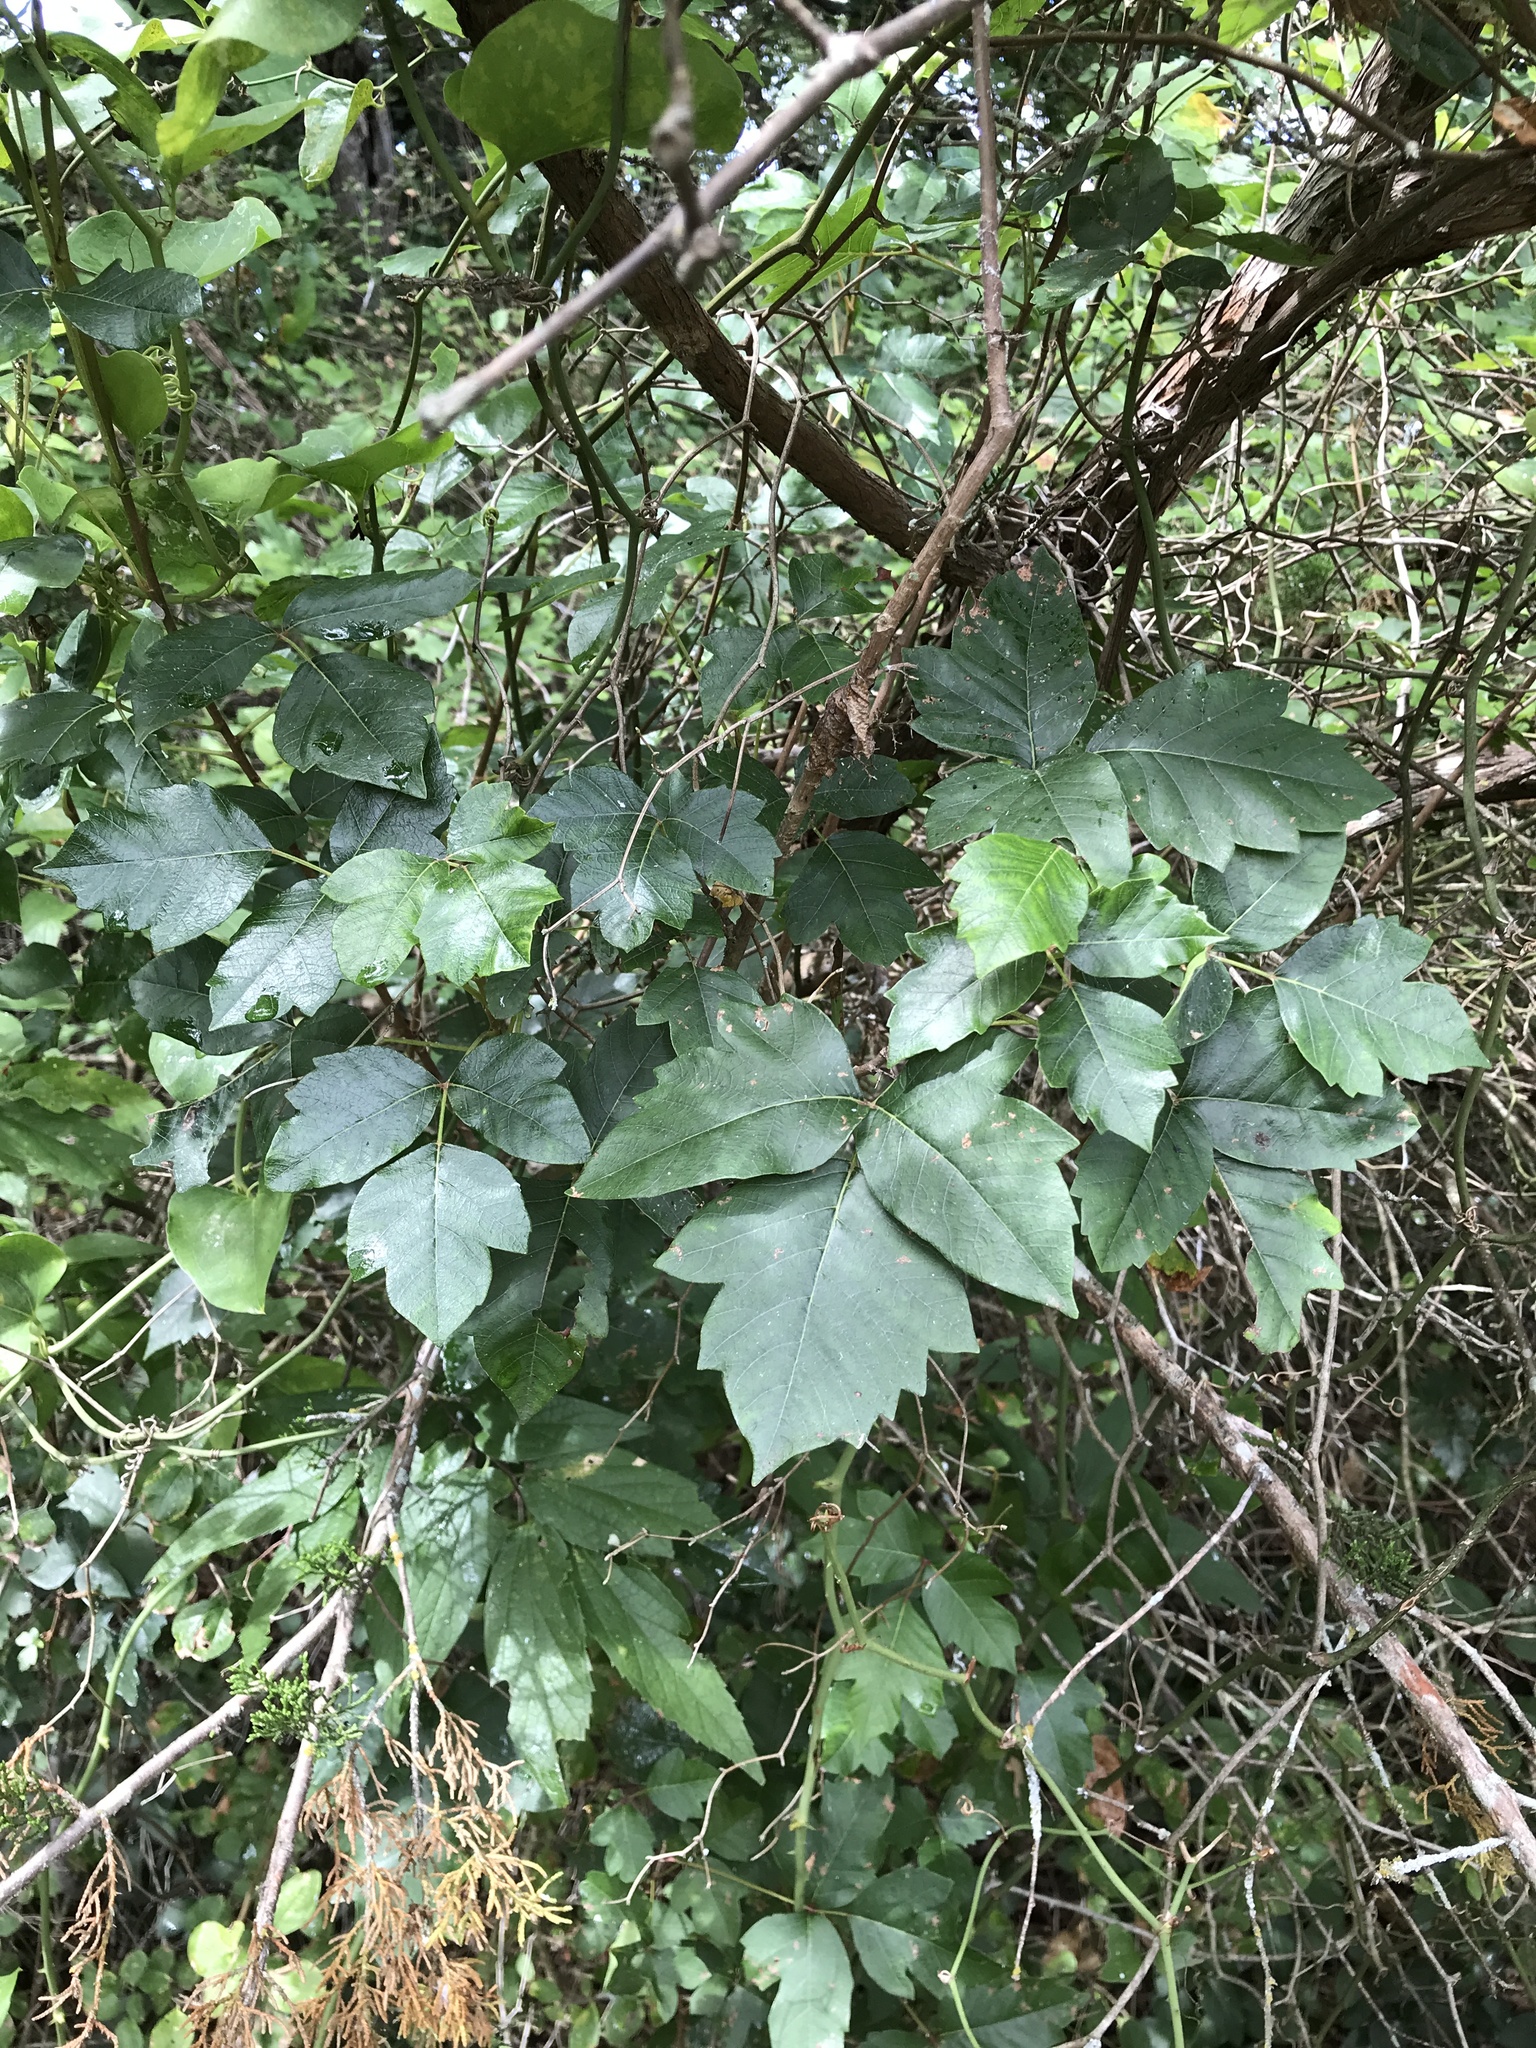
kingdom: Plantae
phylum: Tracheophyta
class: Magnoliopsida
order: Sapindales
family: Anacardiaceae
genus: Toxicodendron
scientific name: Toxicodendron radicans
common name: Poison ivy
